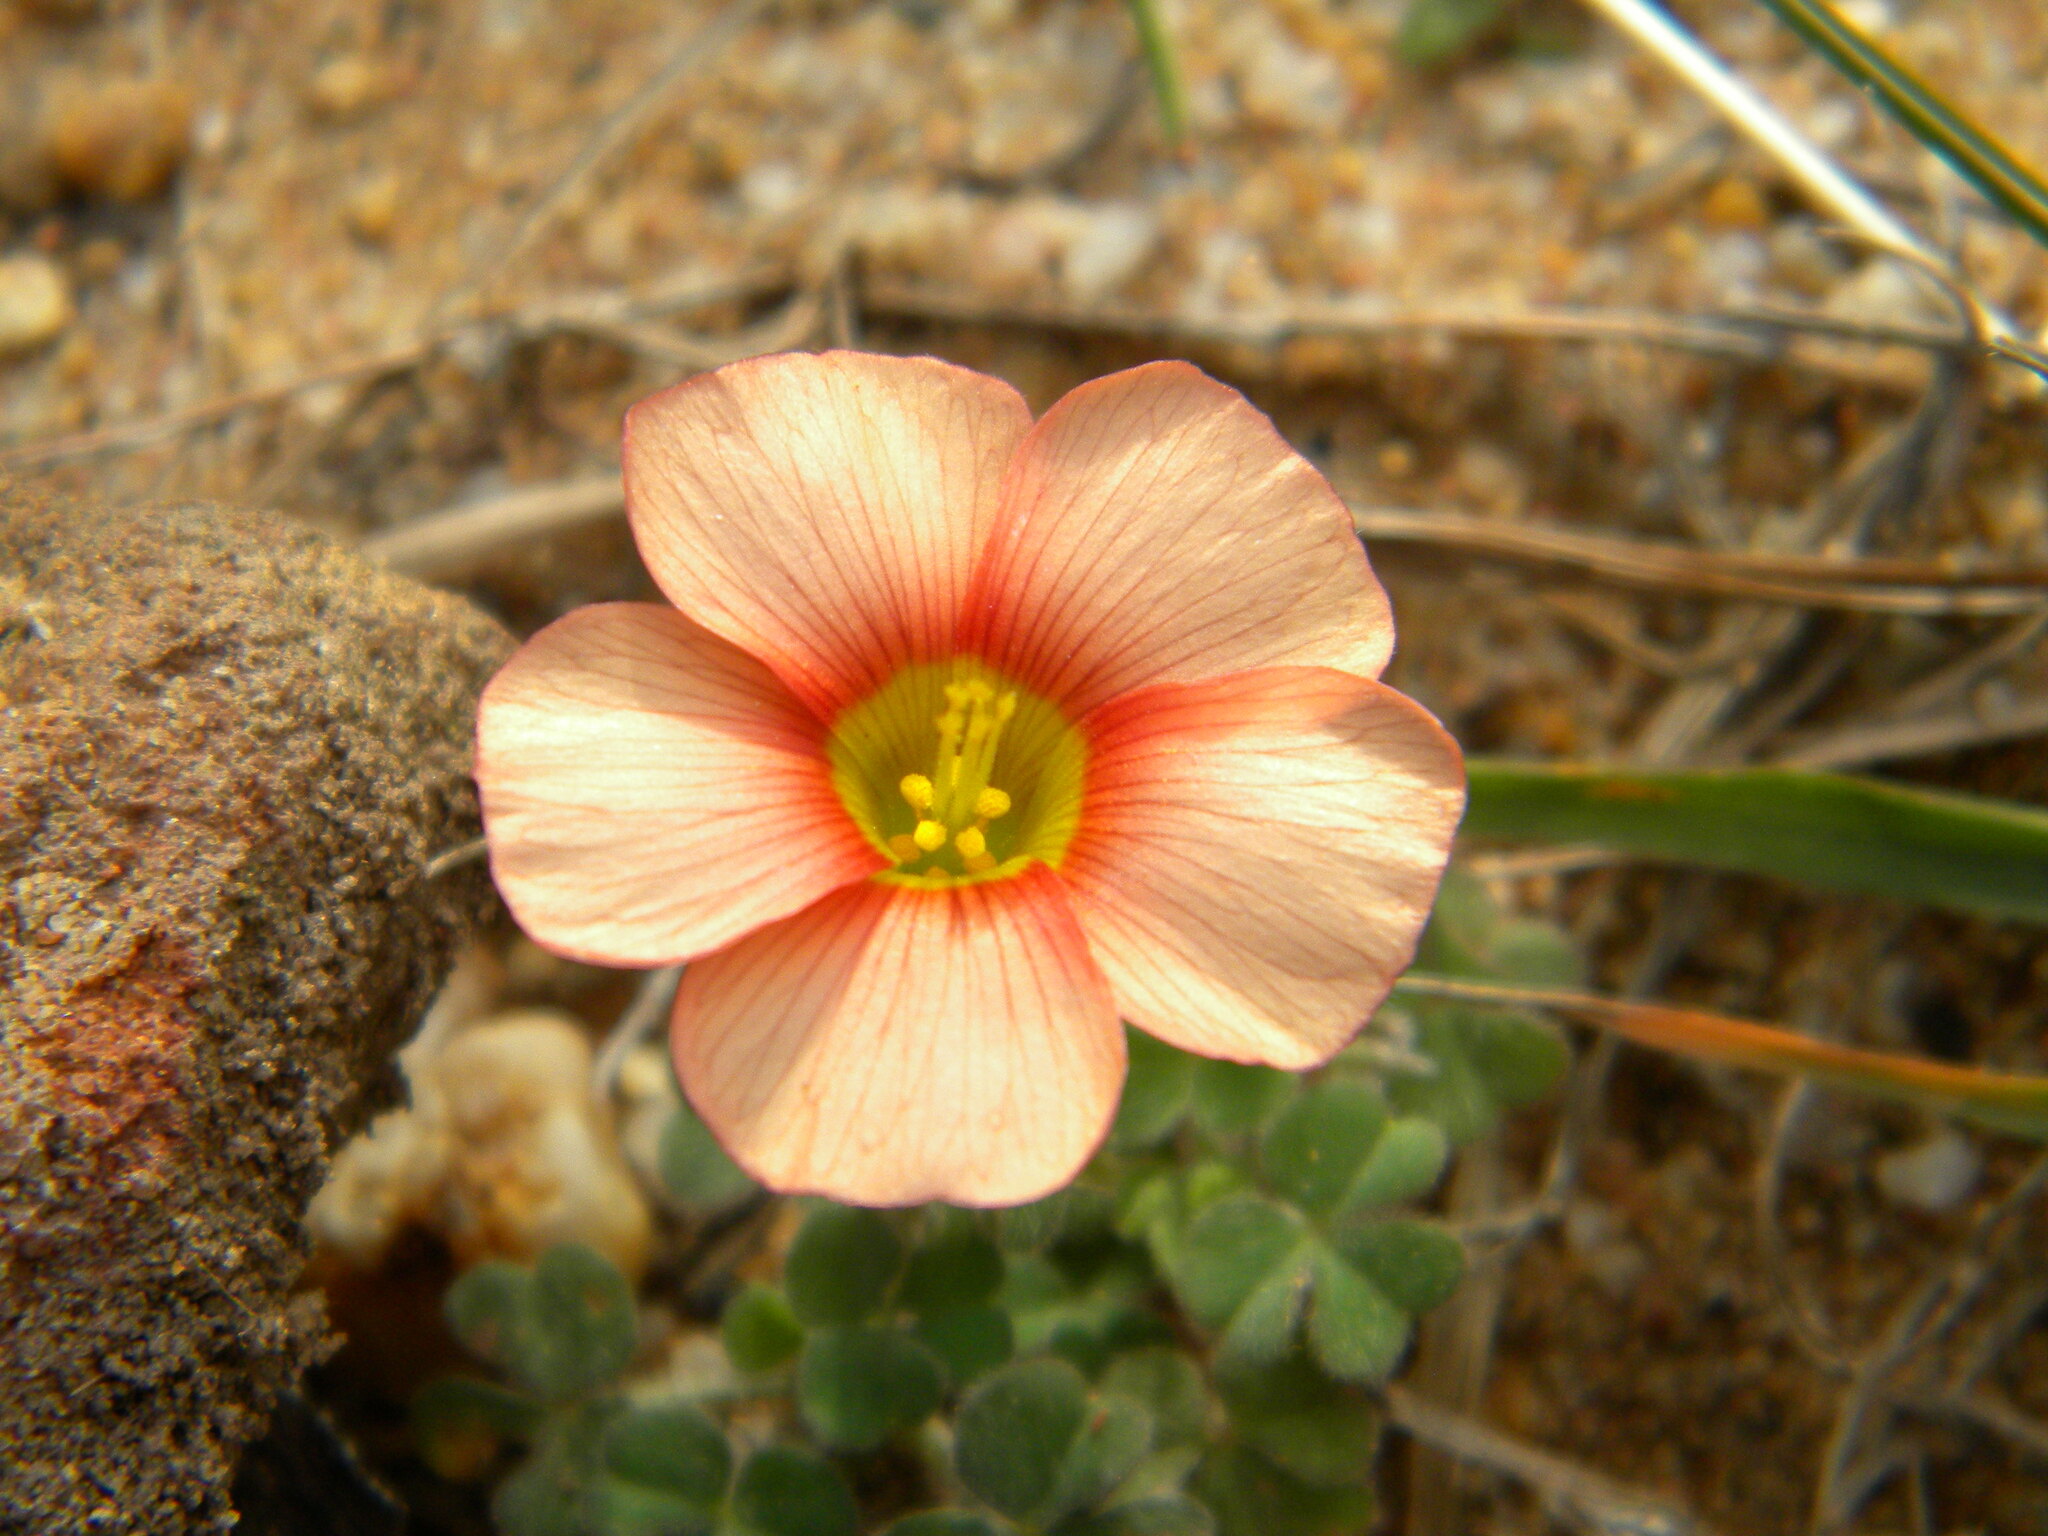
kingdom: Plantae
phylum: Tracheophyta
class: Magnoliopsida
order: Oxalidales
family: Oxalidaceae
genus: Oxalis
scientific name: Oxalis obtusa
